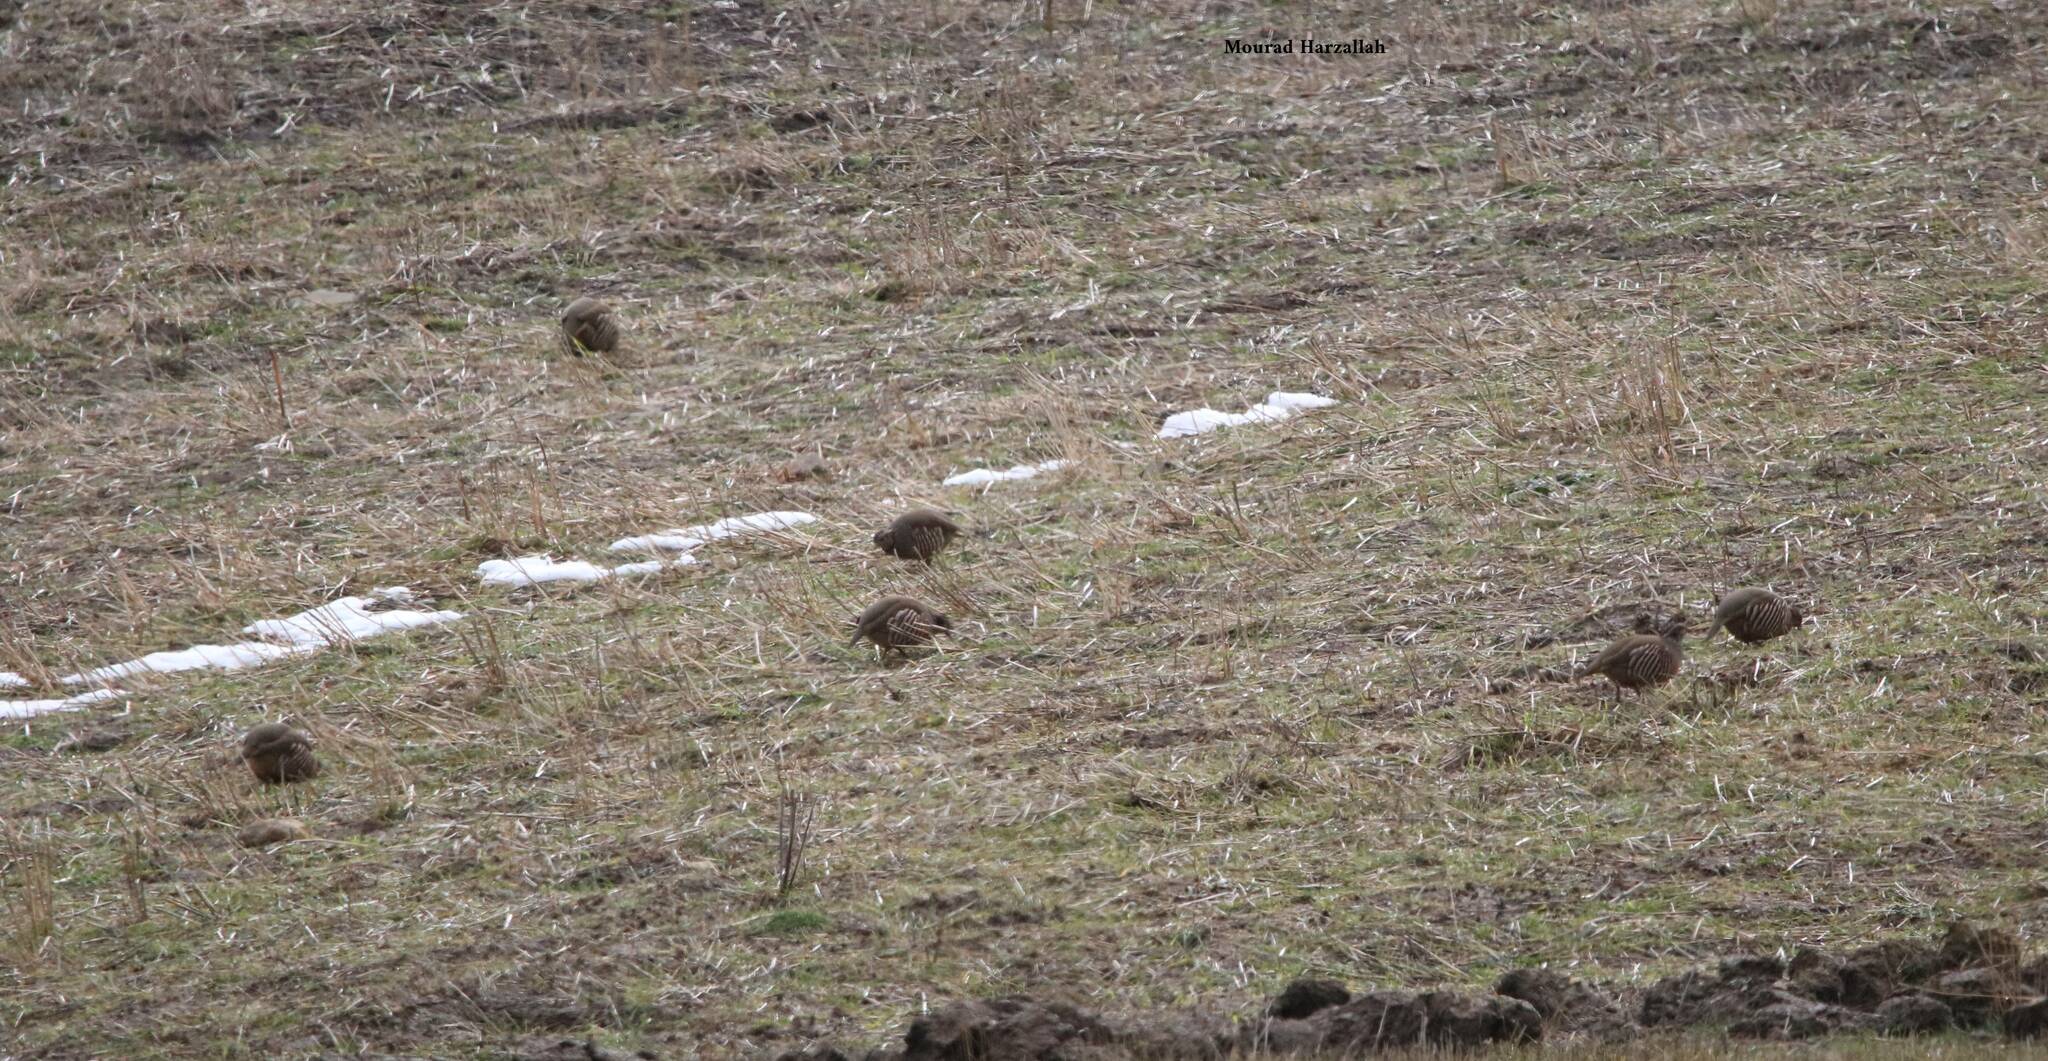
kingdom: Animalia
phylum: Chordata
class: Aves
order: Galliformes
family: Phasianidae
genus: Alectoris
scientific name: Alectoris barbara
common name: Barbary partridge
